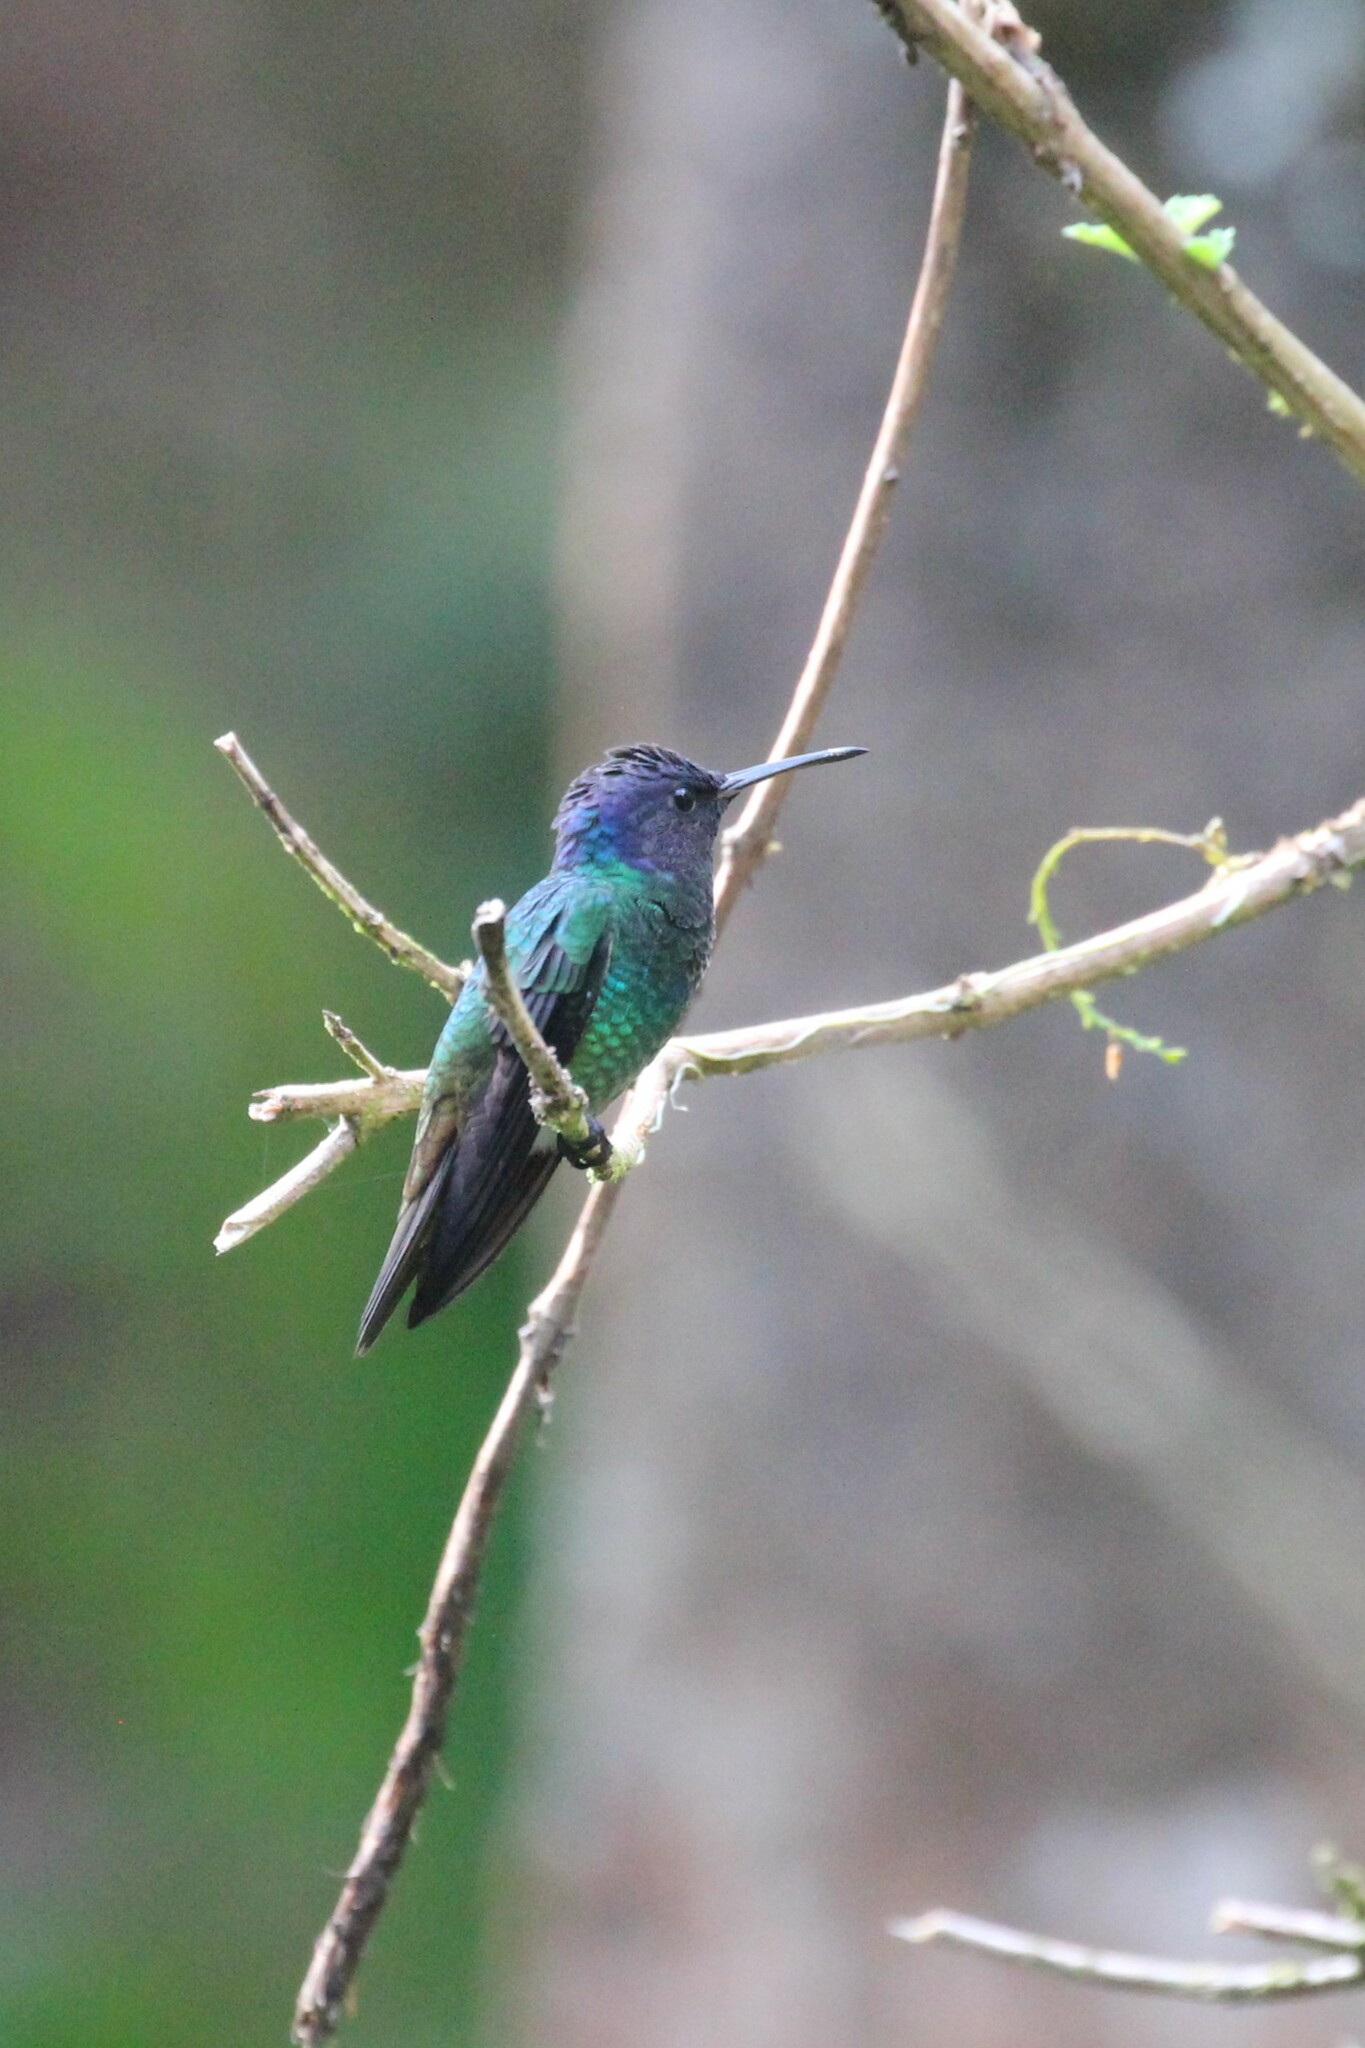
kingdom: Animalia
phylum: Chordata
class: Aves
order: Apodiformes
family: Trochilidae
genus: Chrysuronia
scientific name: Chrysuronia oenone
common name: Golden-tailed sapphire
